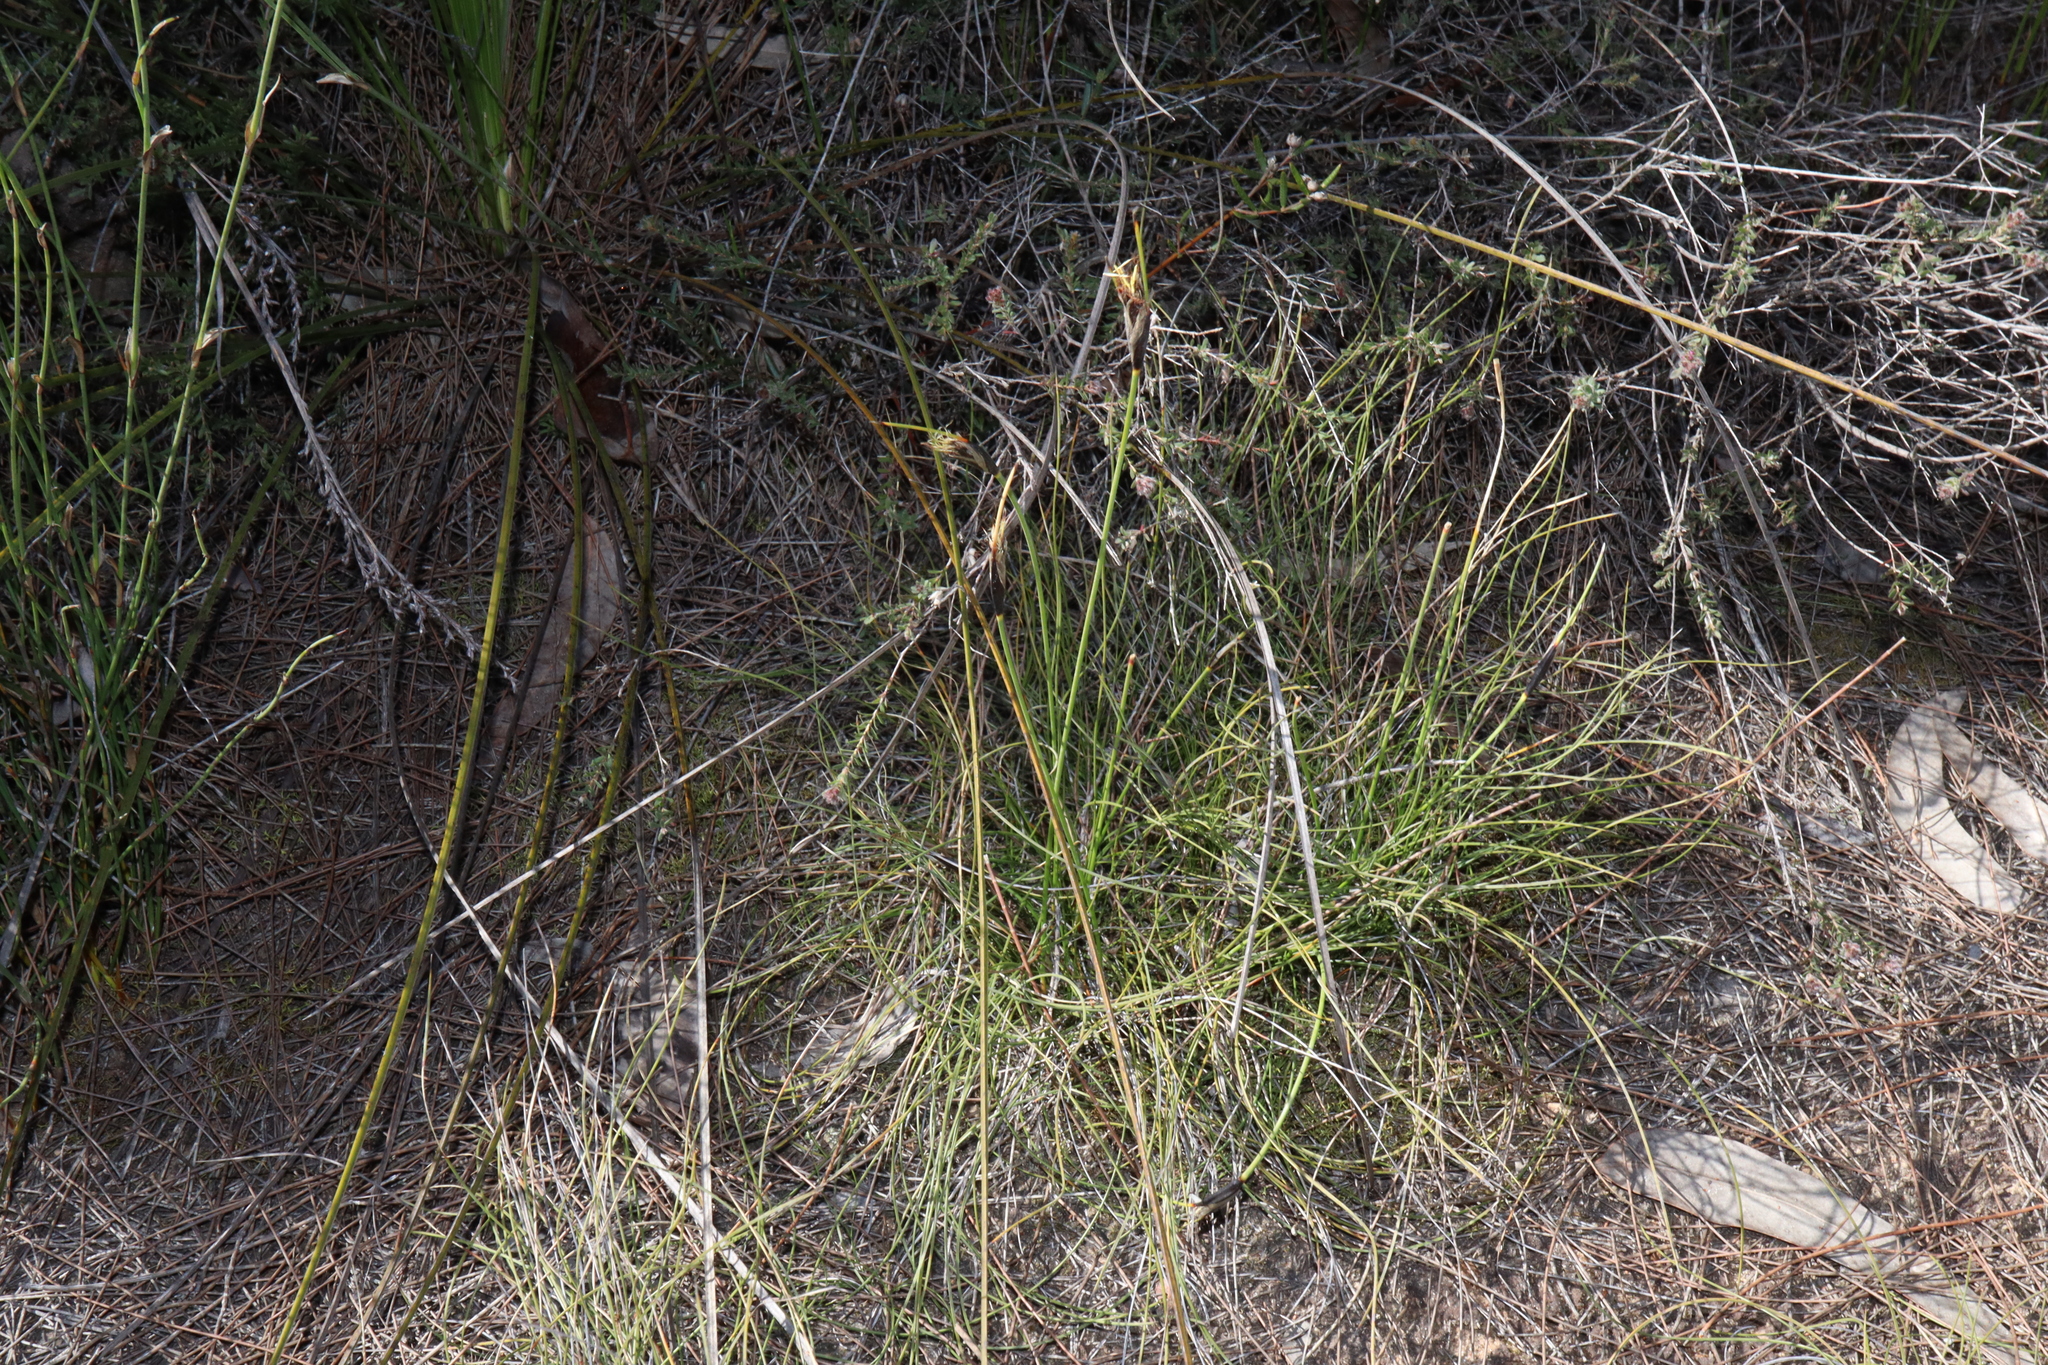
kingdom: Plantae
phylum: Tracheophyta
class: Liliopsida
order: Poales
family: Cyperaceae
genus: Ptilothrix
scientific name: Ptilothrix deusta
